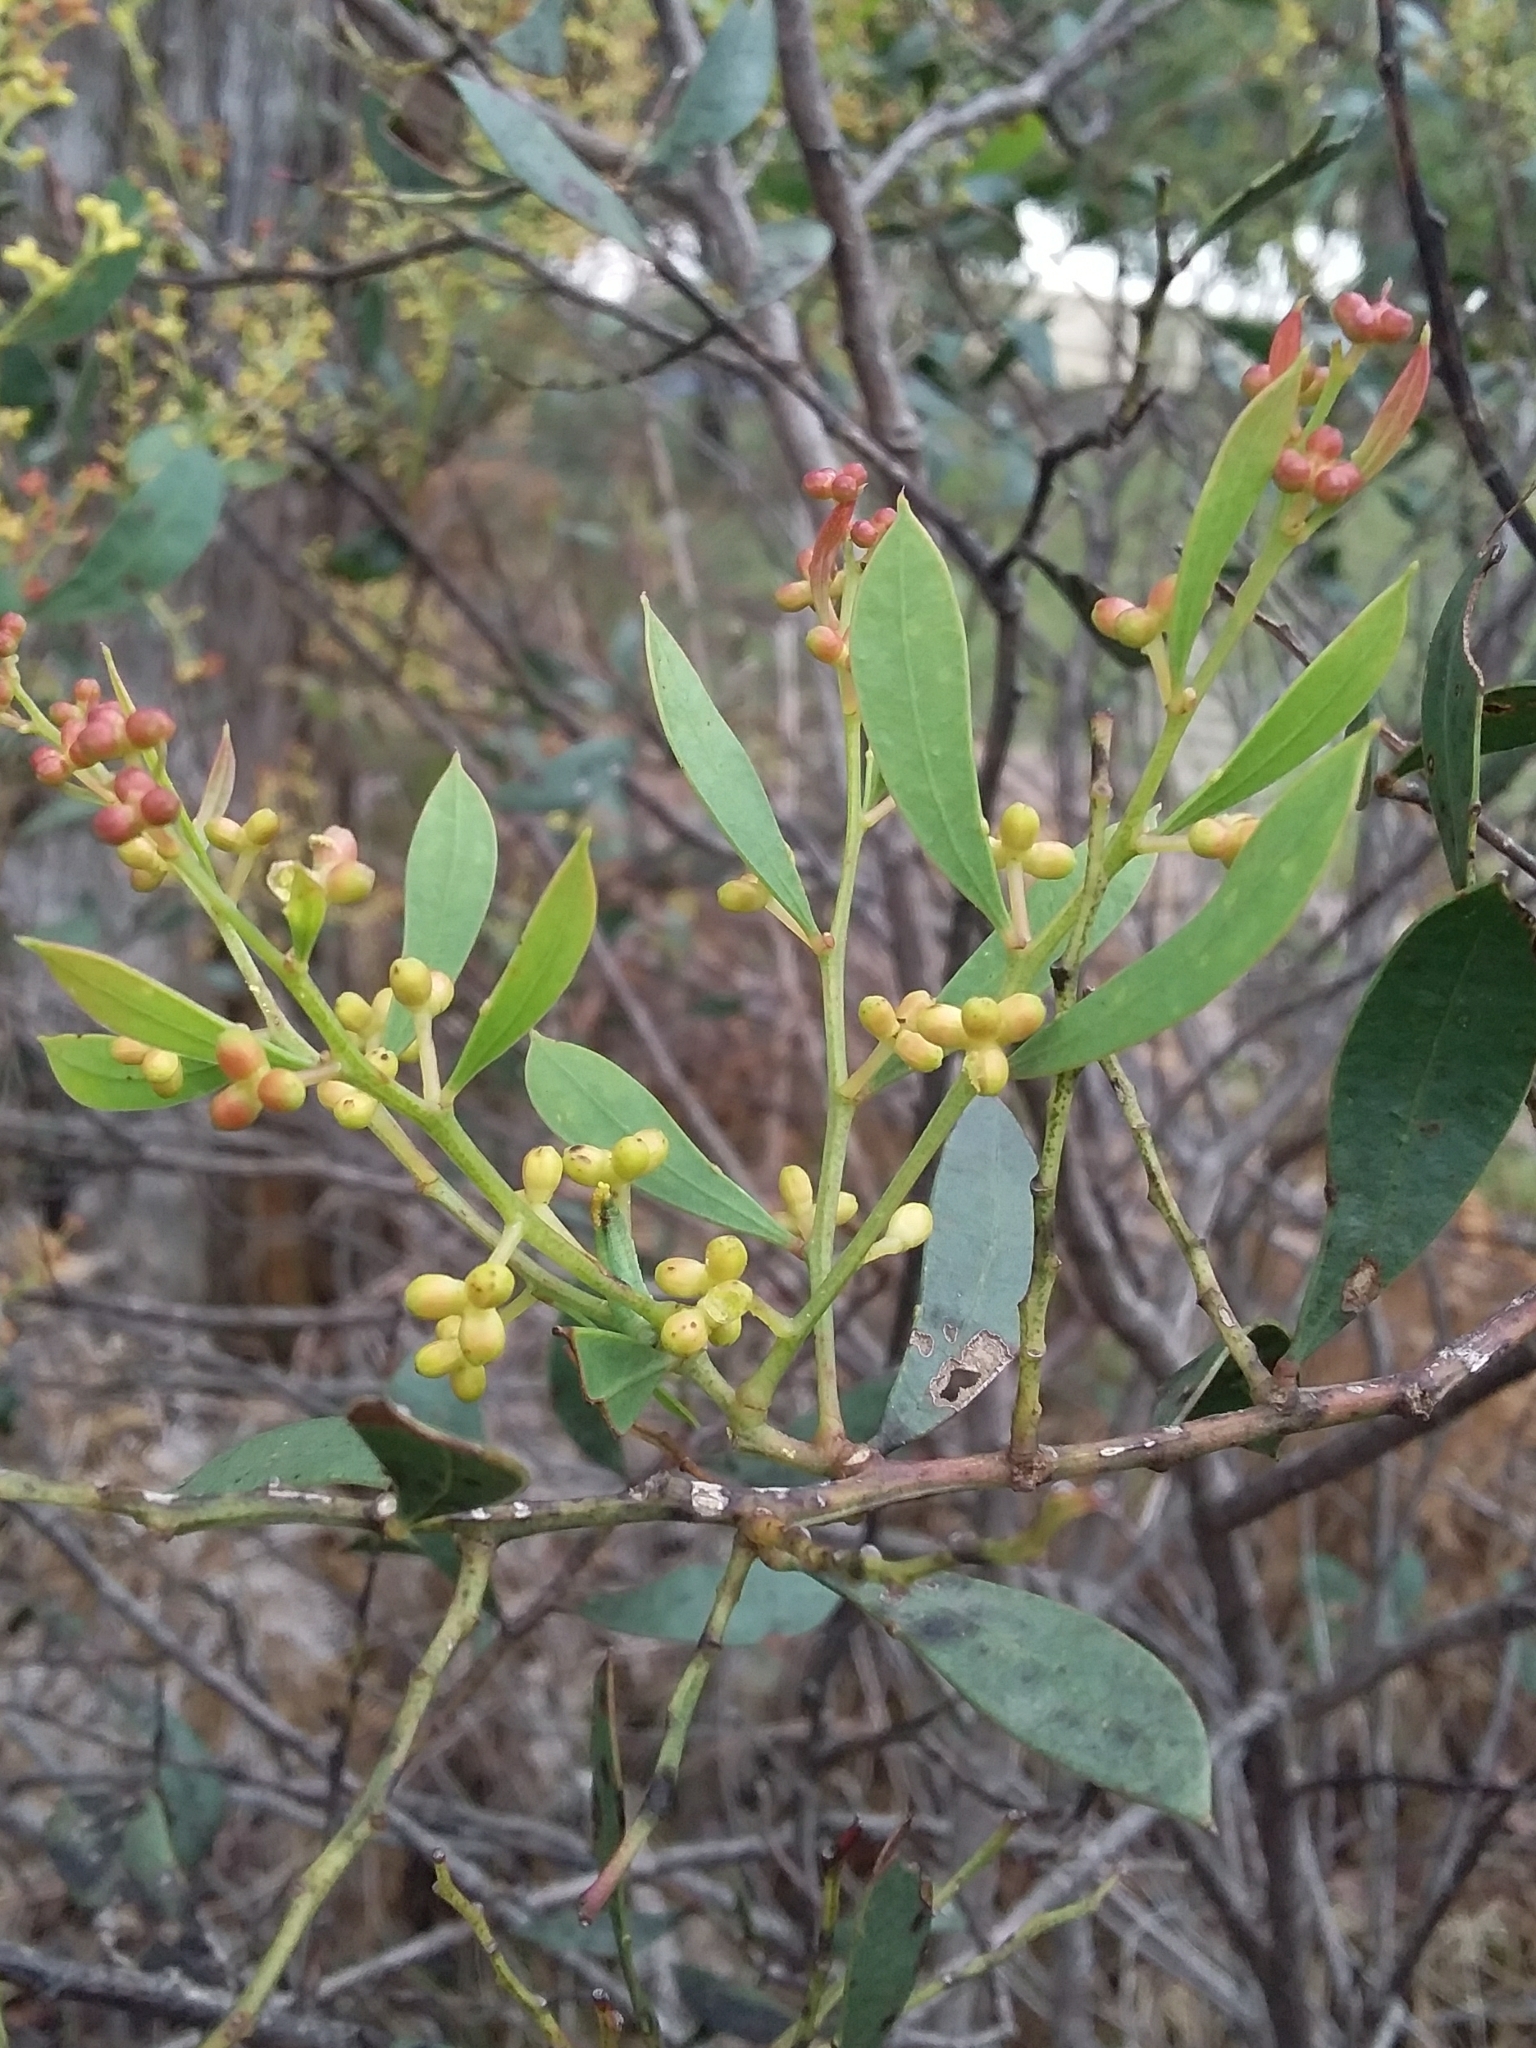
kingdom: Plantae
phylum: Tracheophyta
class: Magnoliopsida
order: Fabales
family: Fabaceae
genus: Acacia
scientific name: Acacia myrtifolia
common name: Myrtle wattle
